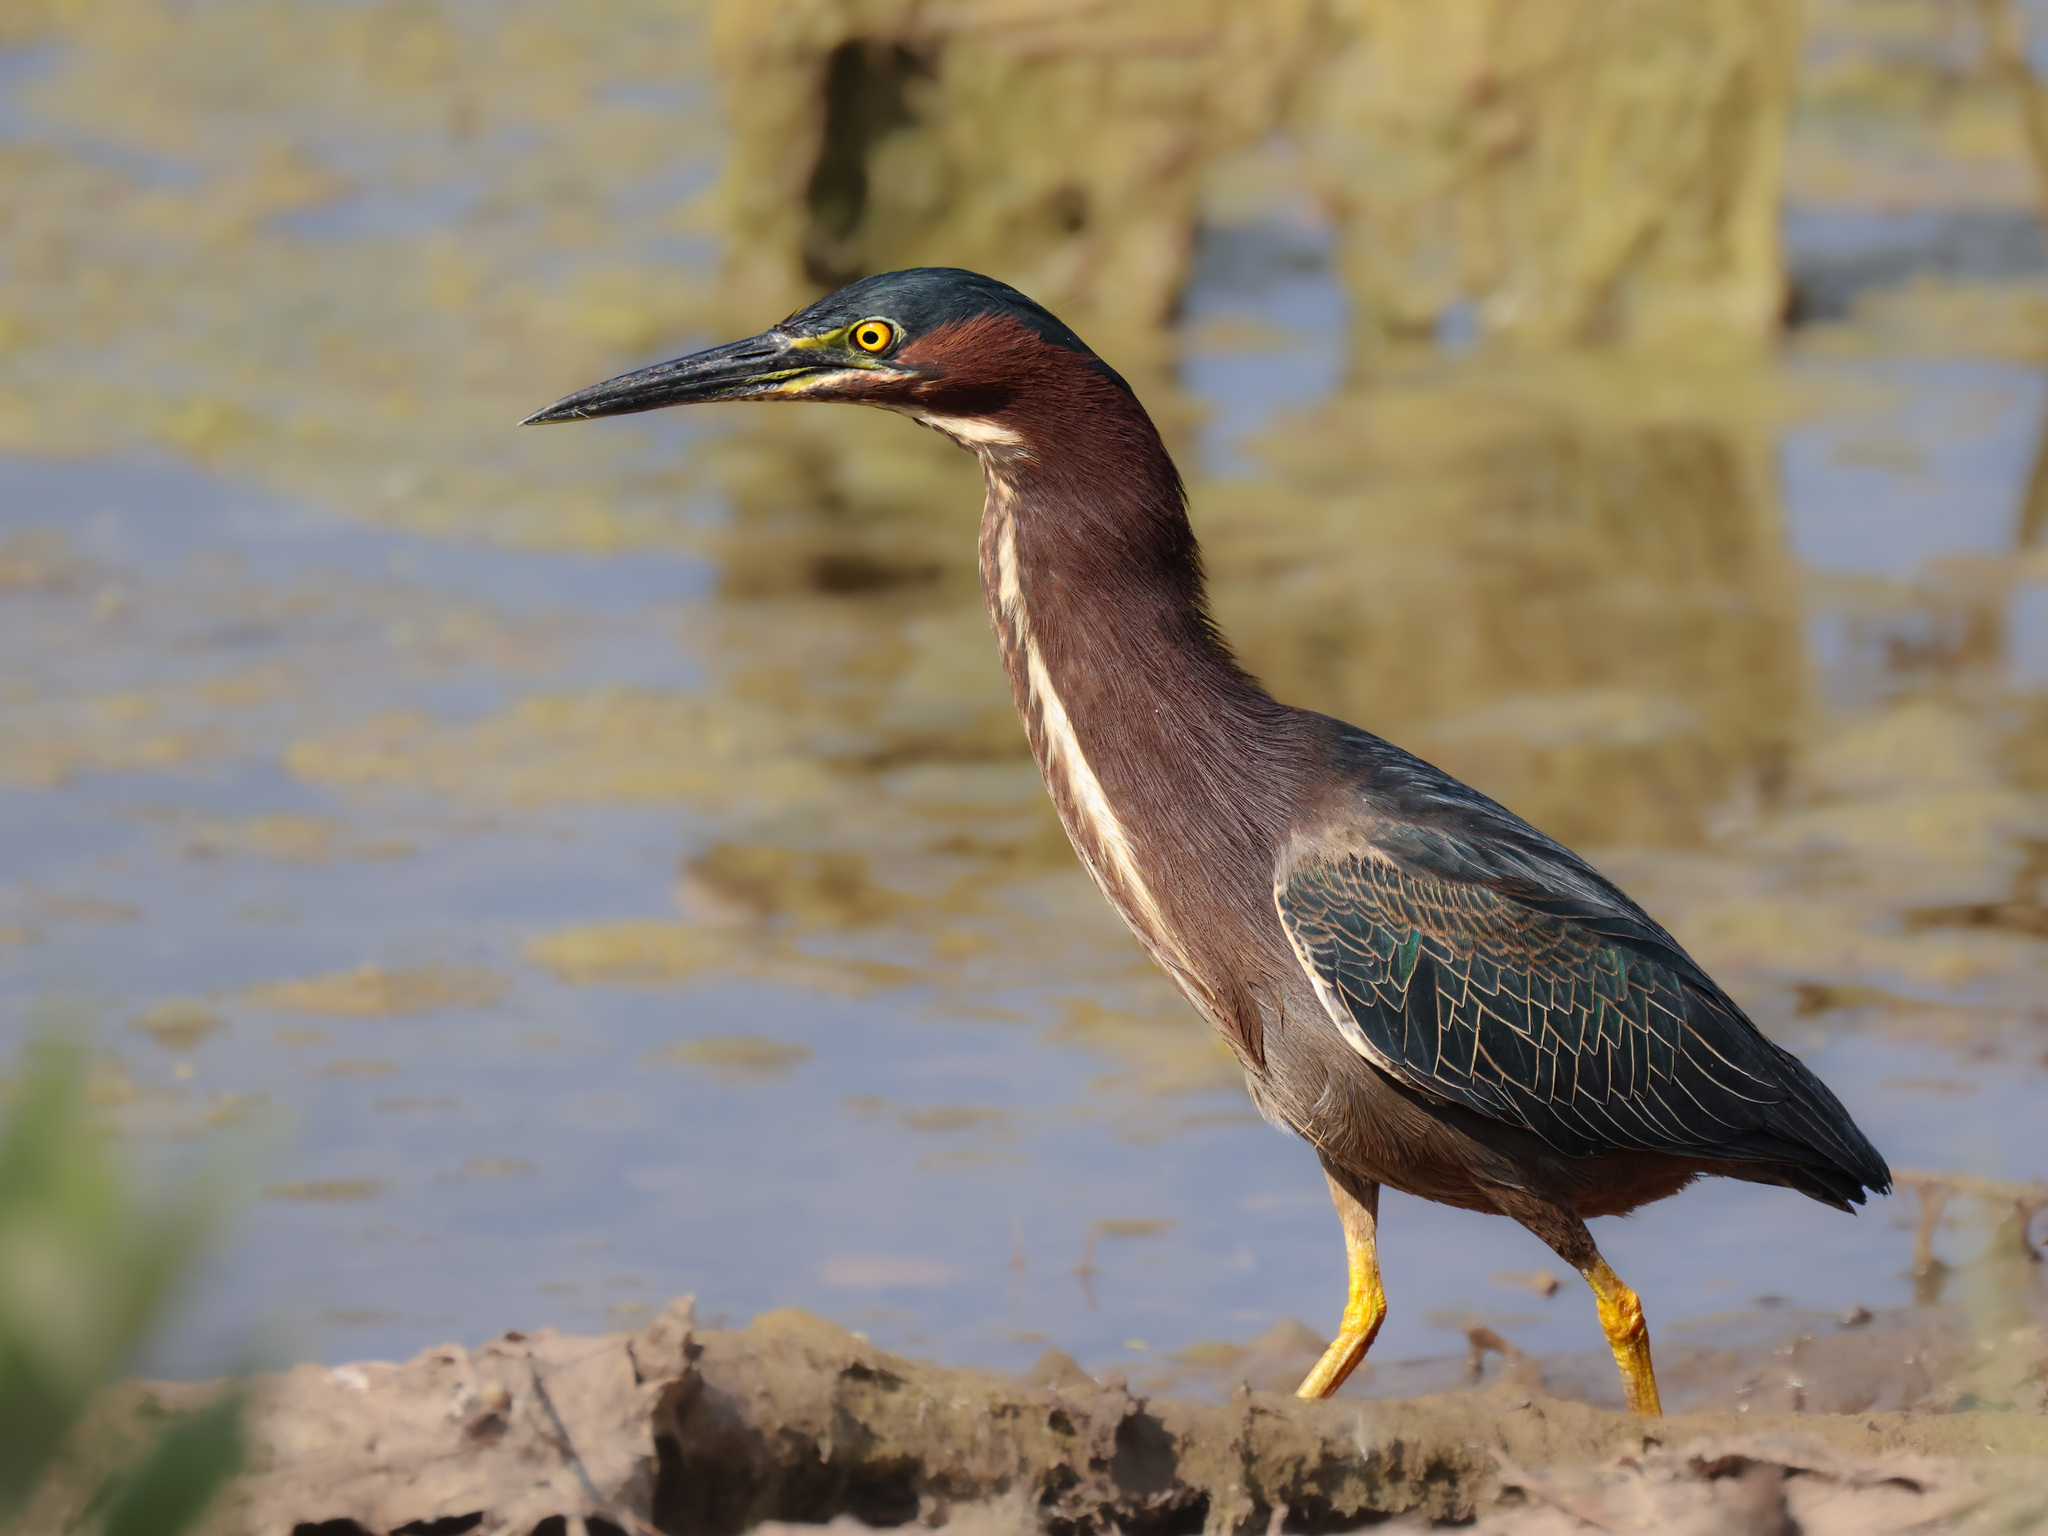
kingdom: Animalia
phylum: Chordata
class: Aves
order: Pelecaniformes
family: Ardeidae
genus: Butorides
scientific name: Butorides virescens
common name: Green heron
